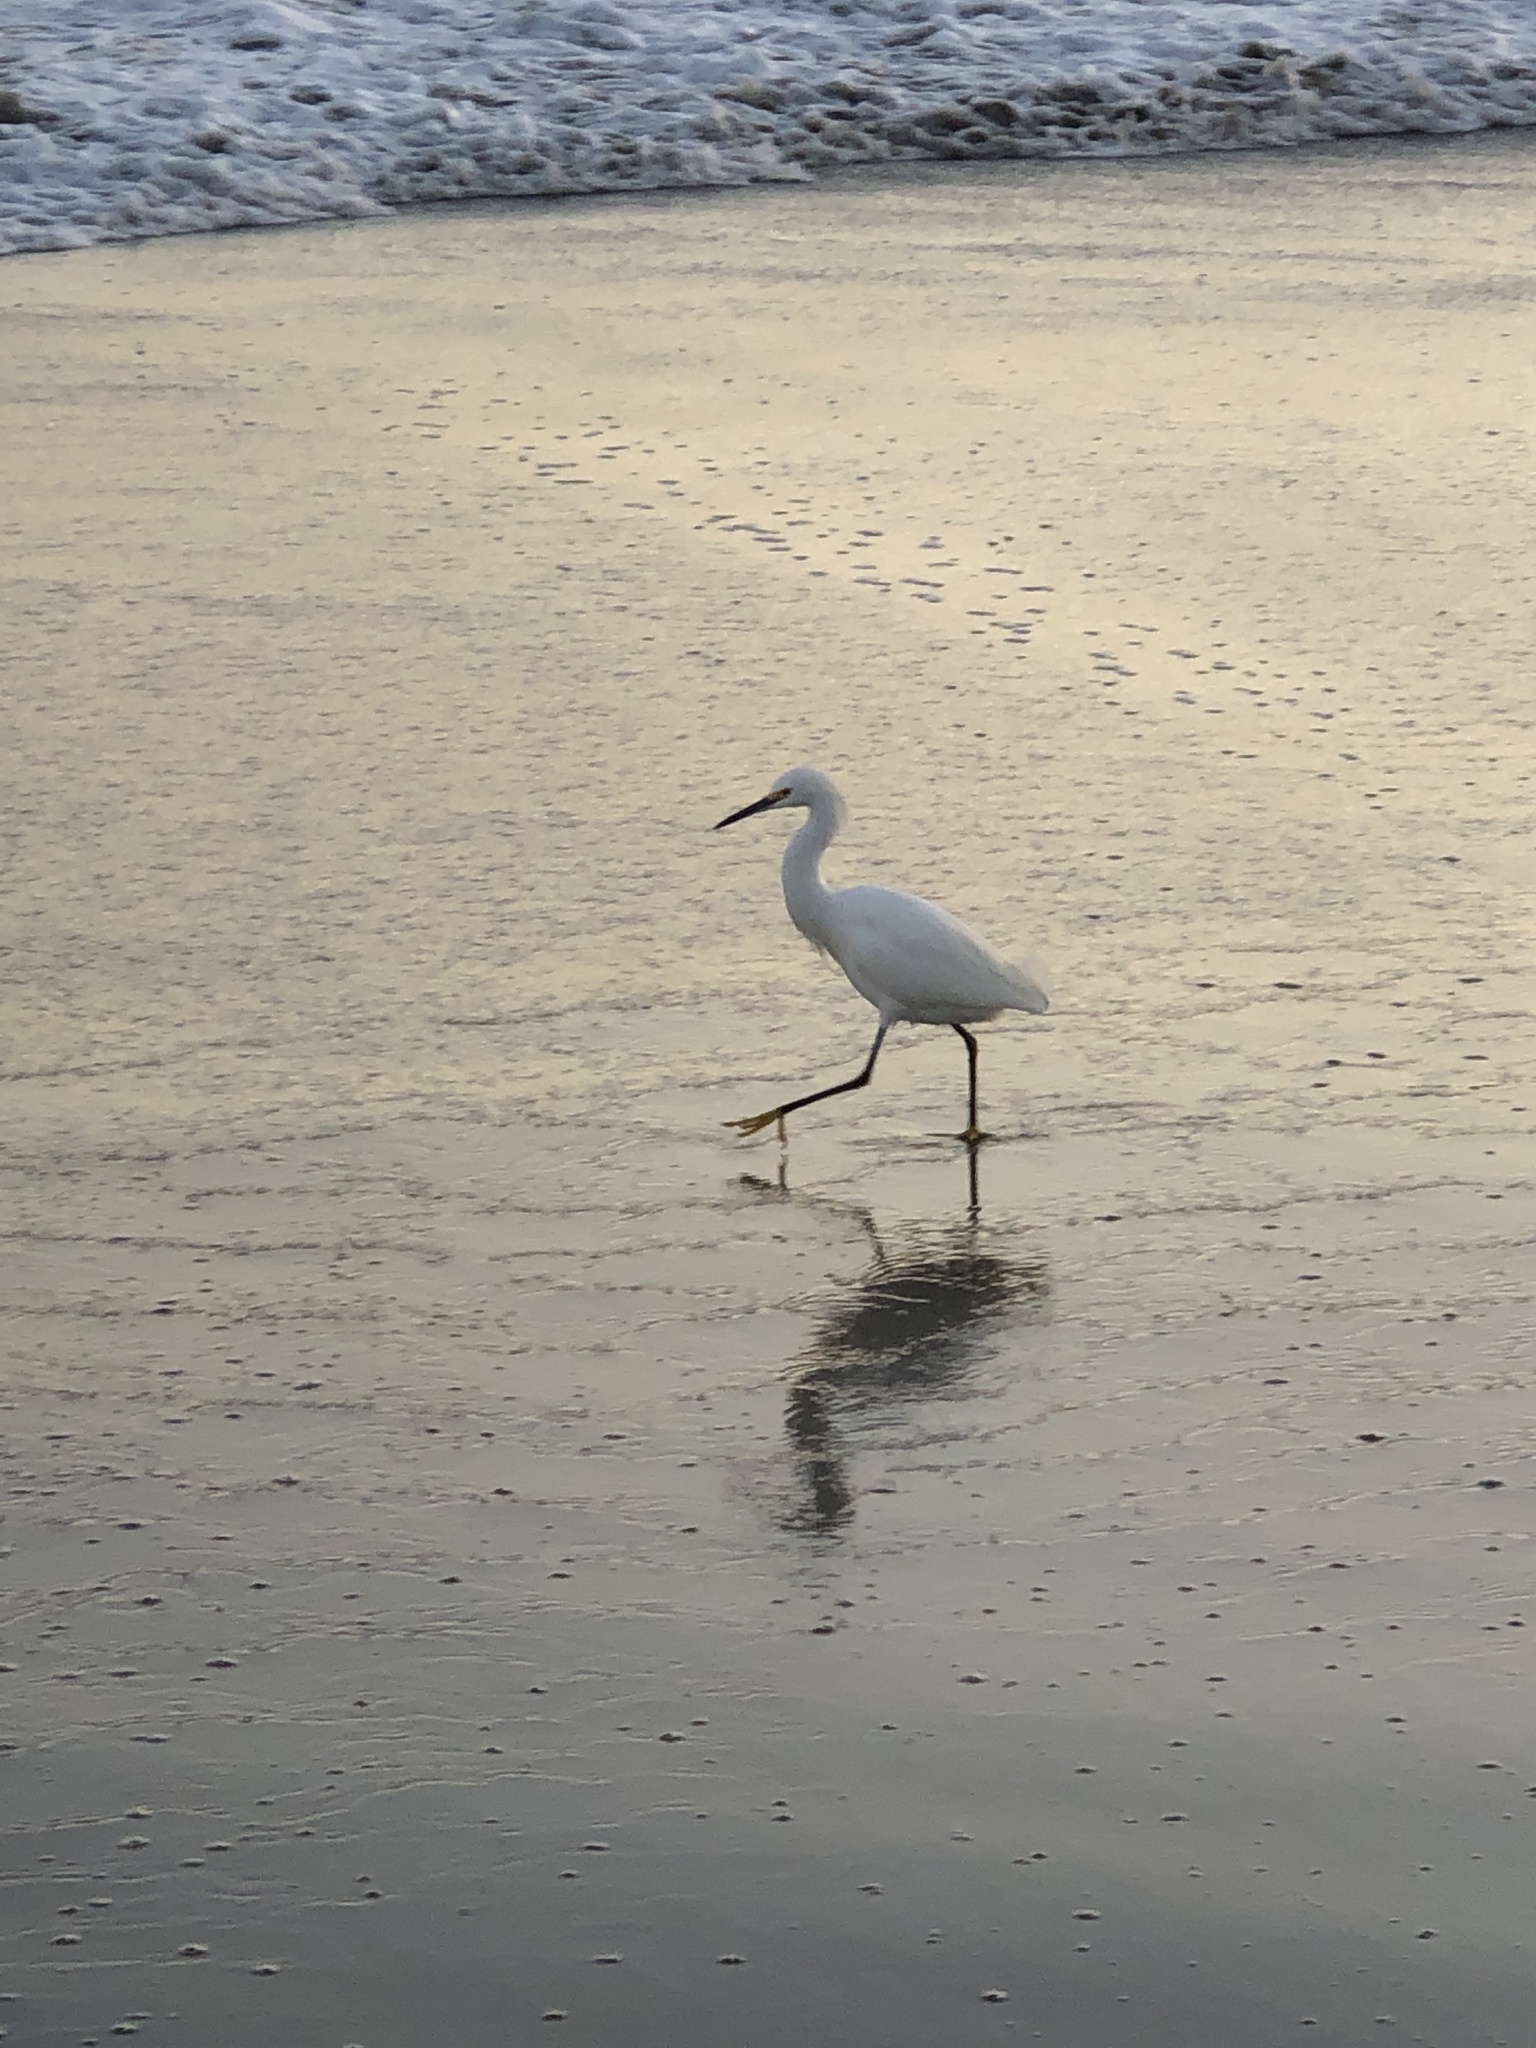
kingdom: Animalia
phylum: Chordata
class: Aves
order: Pelecaniformes
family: Ardeidae
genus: Egretta
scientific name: Egretta thula
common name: Snowy egret
